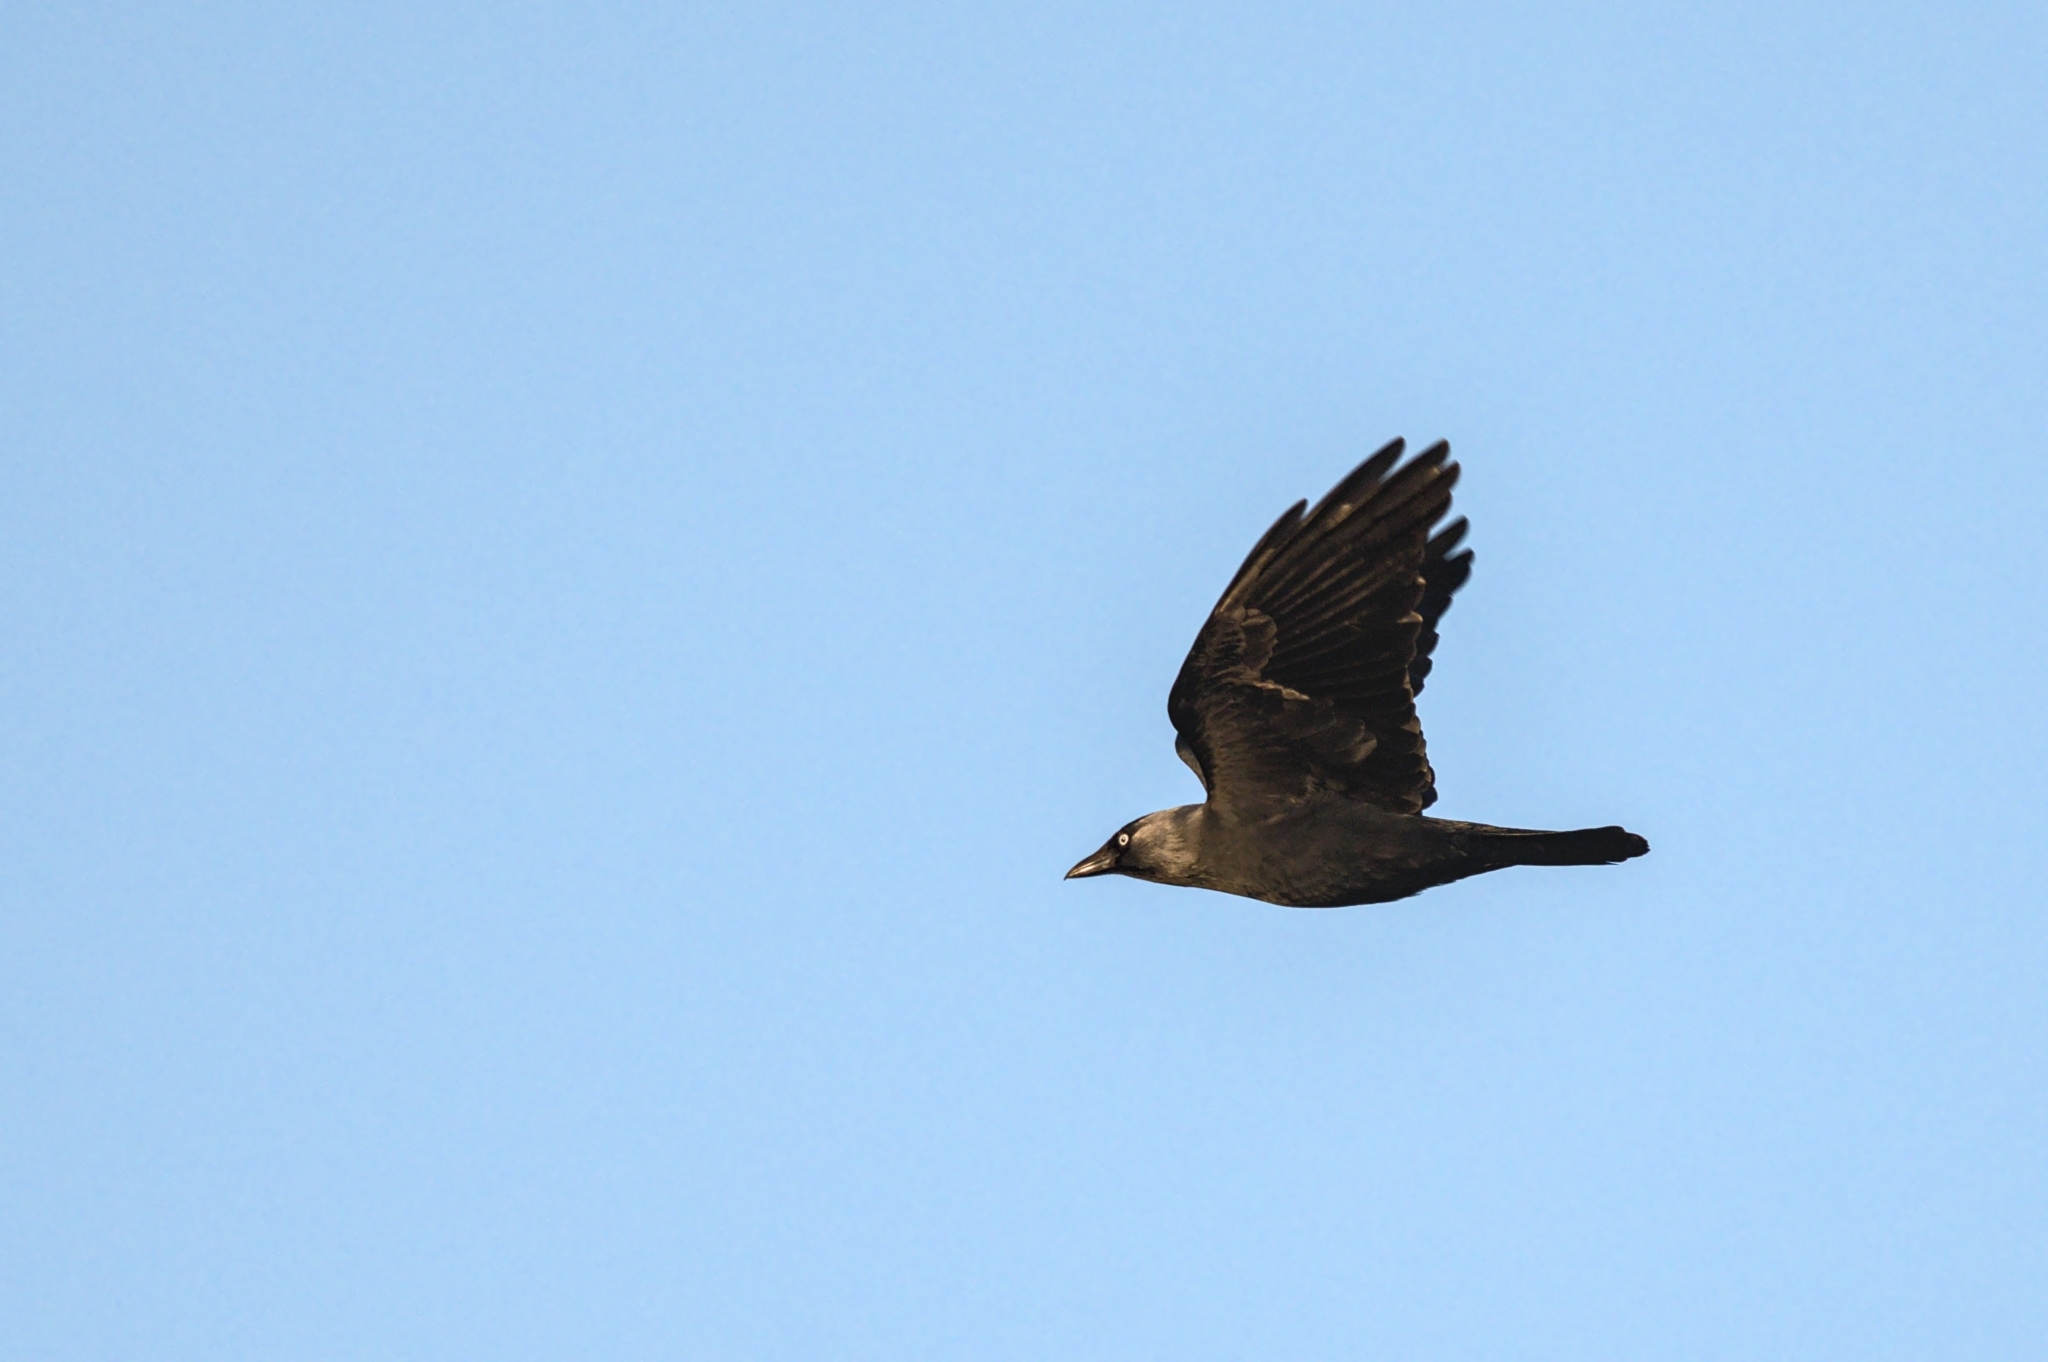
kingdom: Animalia
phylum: Chordata
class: Aves
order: Passeriformes
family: Corvidae
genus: Coloeus
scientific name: Coloeus monedula
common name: Western jackdaw
